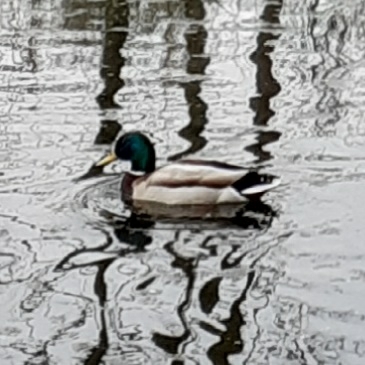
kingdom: Animalia
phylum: Chordata
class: Aves
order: Anseriformes
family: Anatidae
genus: Anas
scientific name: Anas platyrhynchos
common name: Mallard
